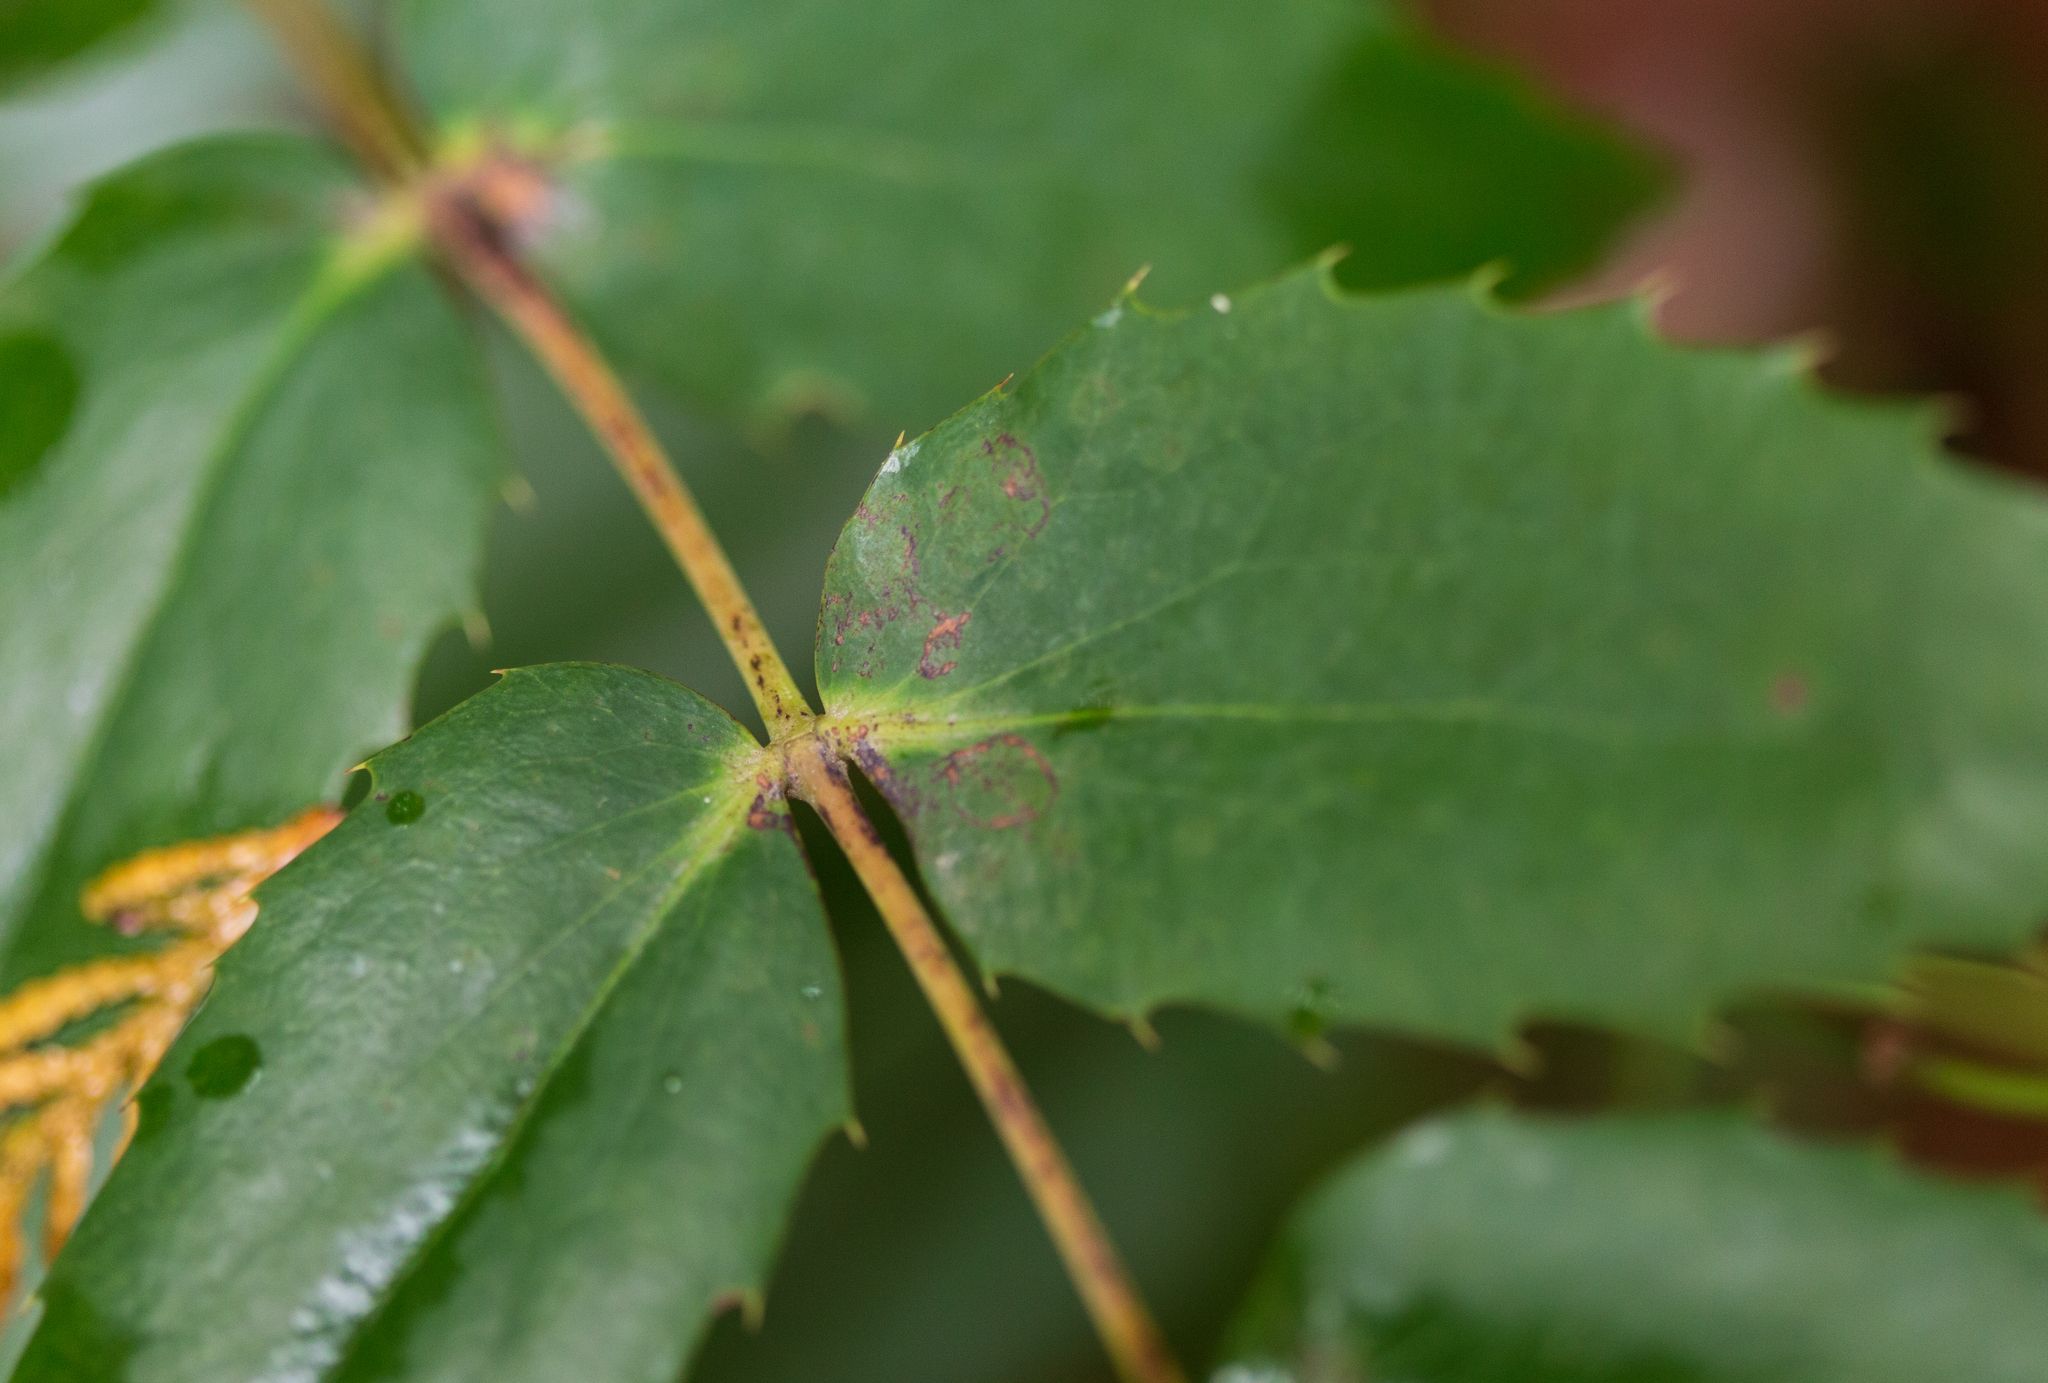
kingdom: Plantae
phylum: Tracheophyta
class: Magnoliopsida
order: Ranunculales
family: Berberidaceae
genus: Mahonia
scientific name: Mahonia nervosa
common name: Cascade oregon-grape
